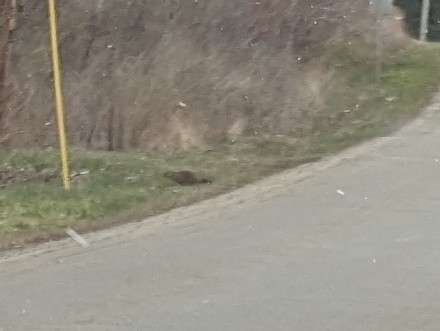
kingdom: Animalia
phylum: Chordata
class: Mammalia
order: Rodentia
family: Sciuridae
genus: Marmota
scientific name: Marmota monax
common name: Groundhog
